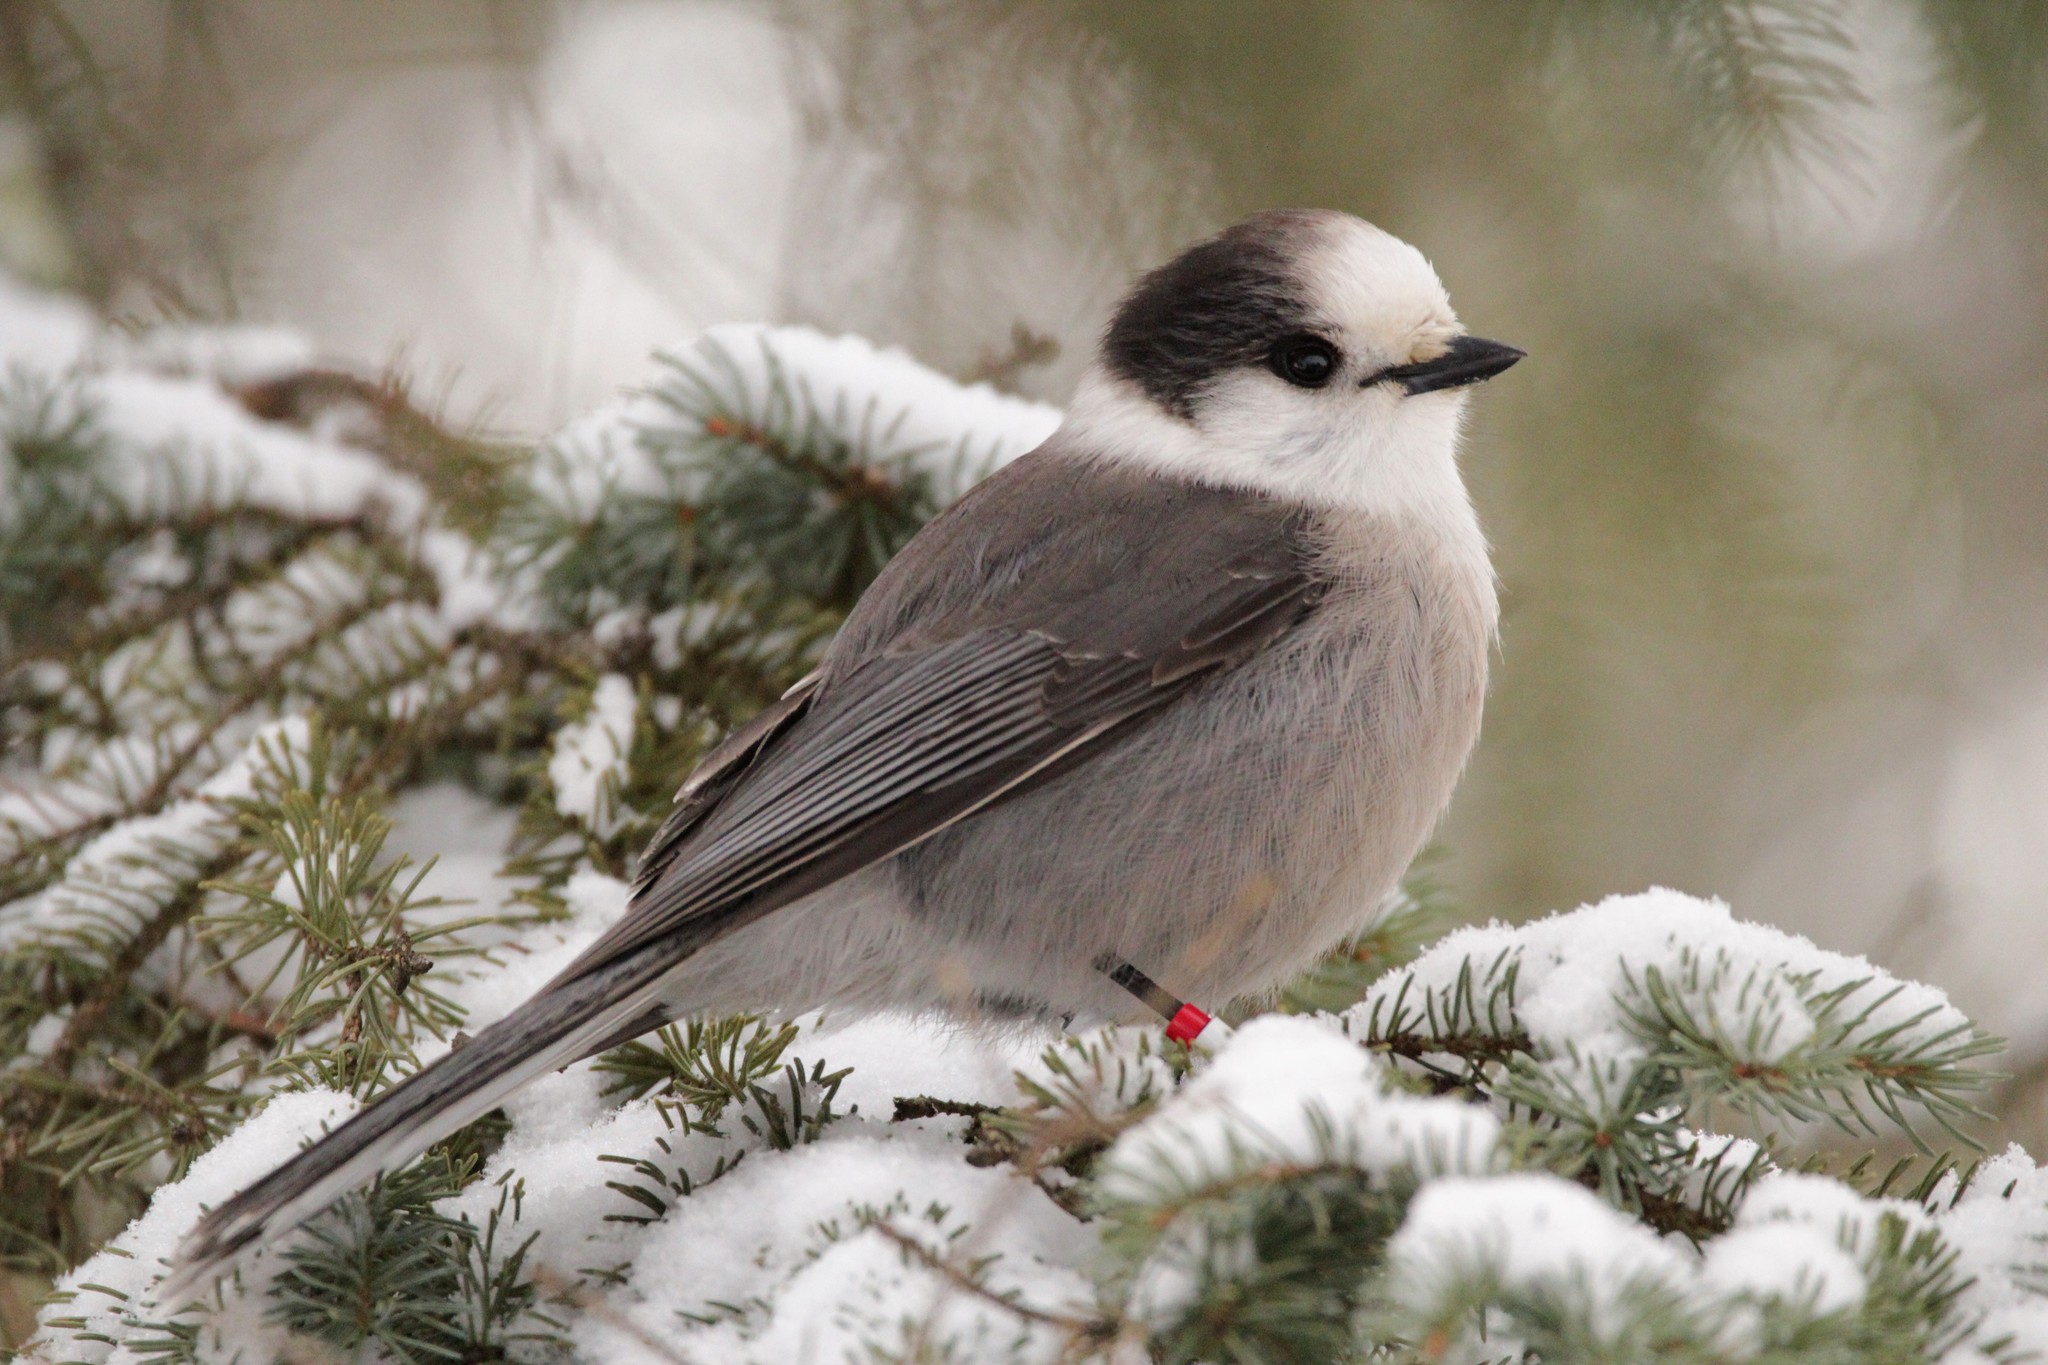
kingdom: Animalia
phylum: Chordata
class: Aves
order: Passeriformes
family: Corvidae
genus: Perisoreus
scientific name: Perisoreus canadensis
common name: Gray jay
